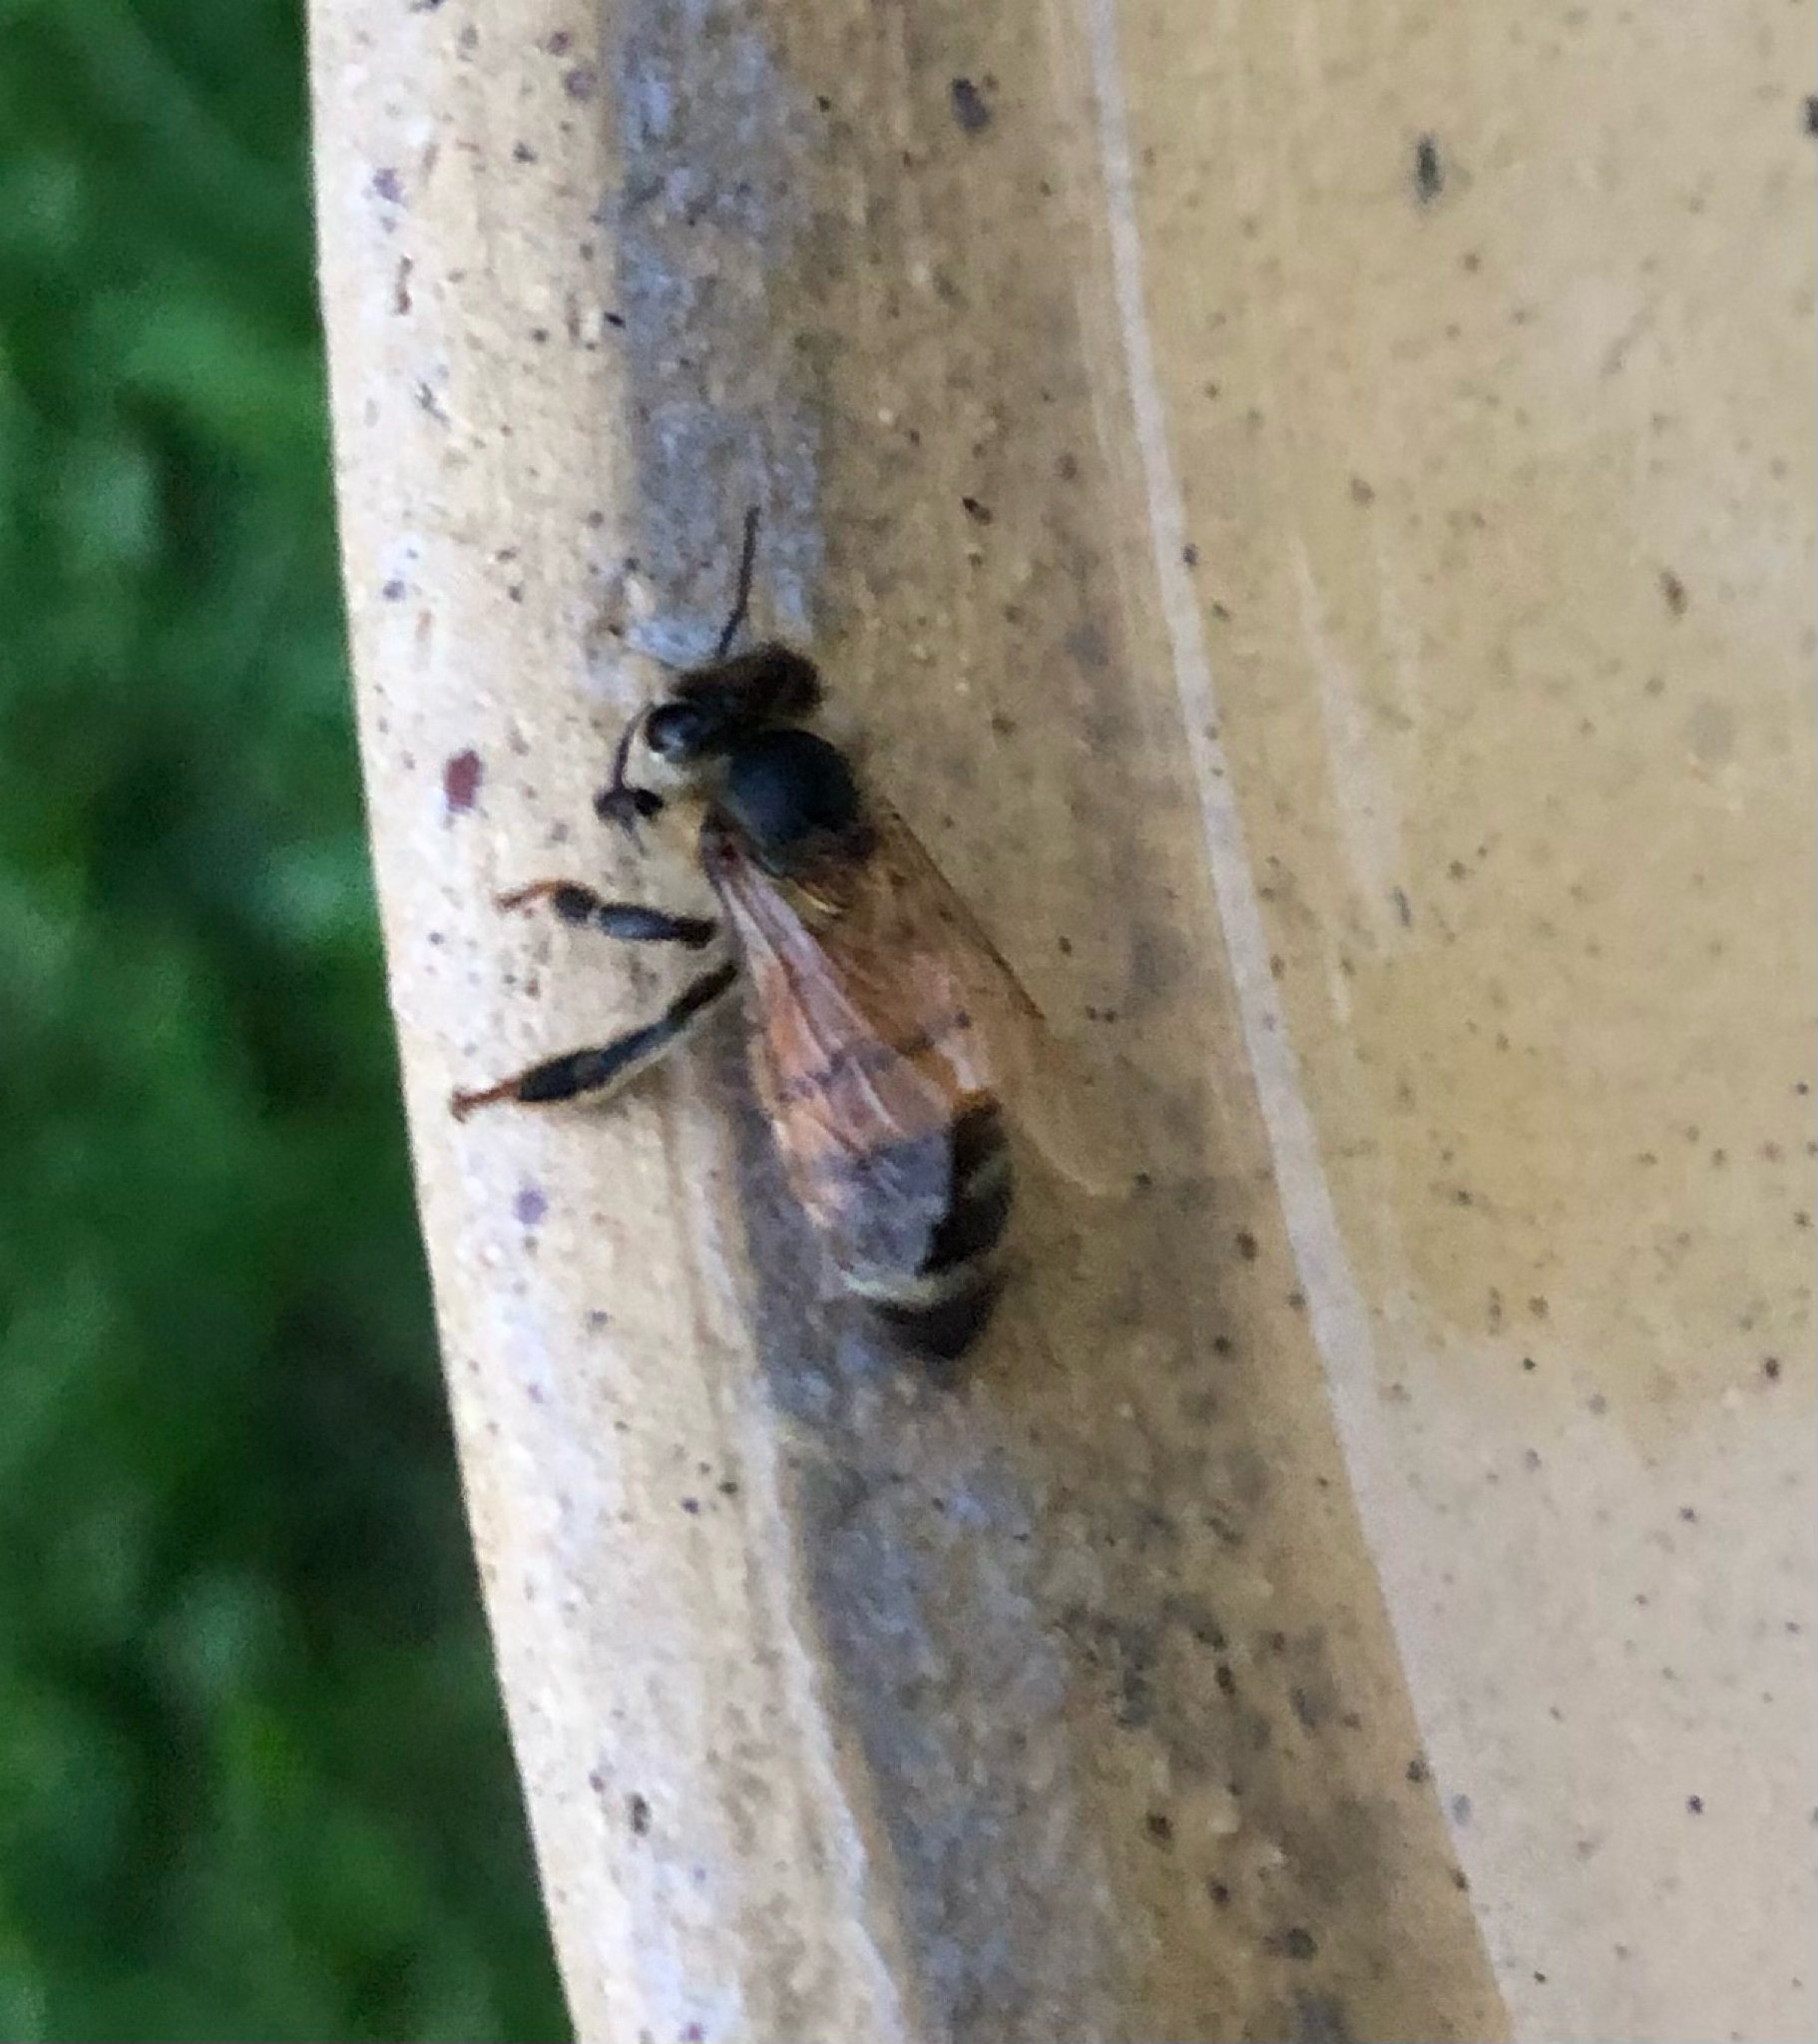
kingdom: Animalia
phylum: Arthropoda
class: Insecta
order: Hymenoptera
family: Apidae
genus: Apis
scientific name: Apis mellifera
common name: Honey bee
